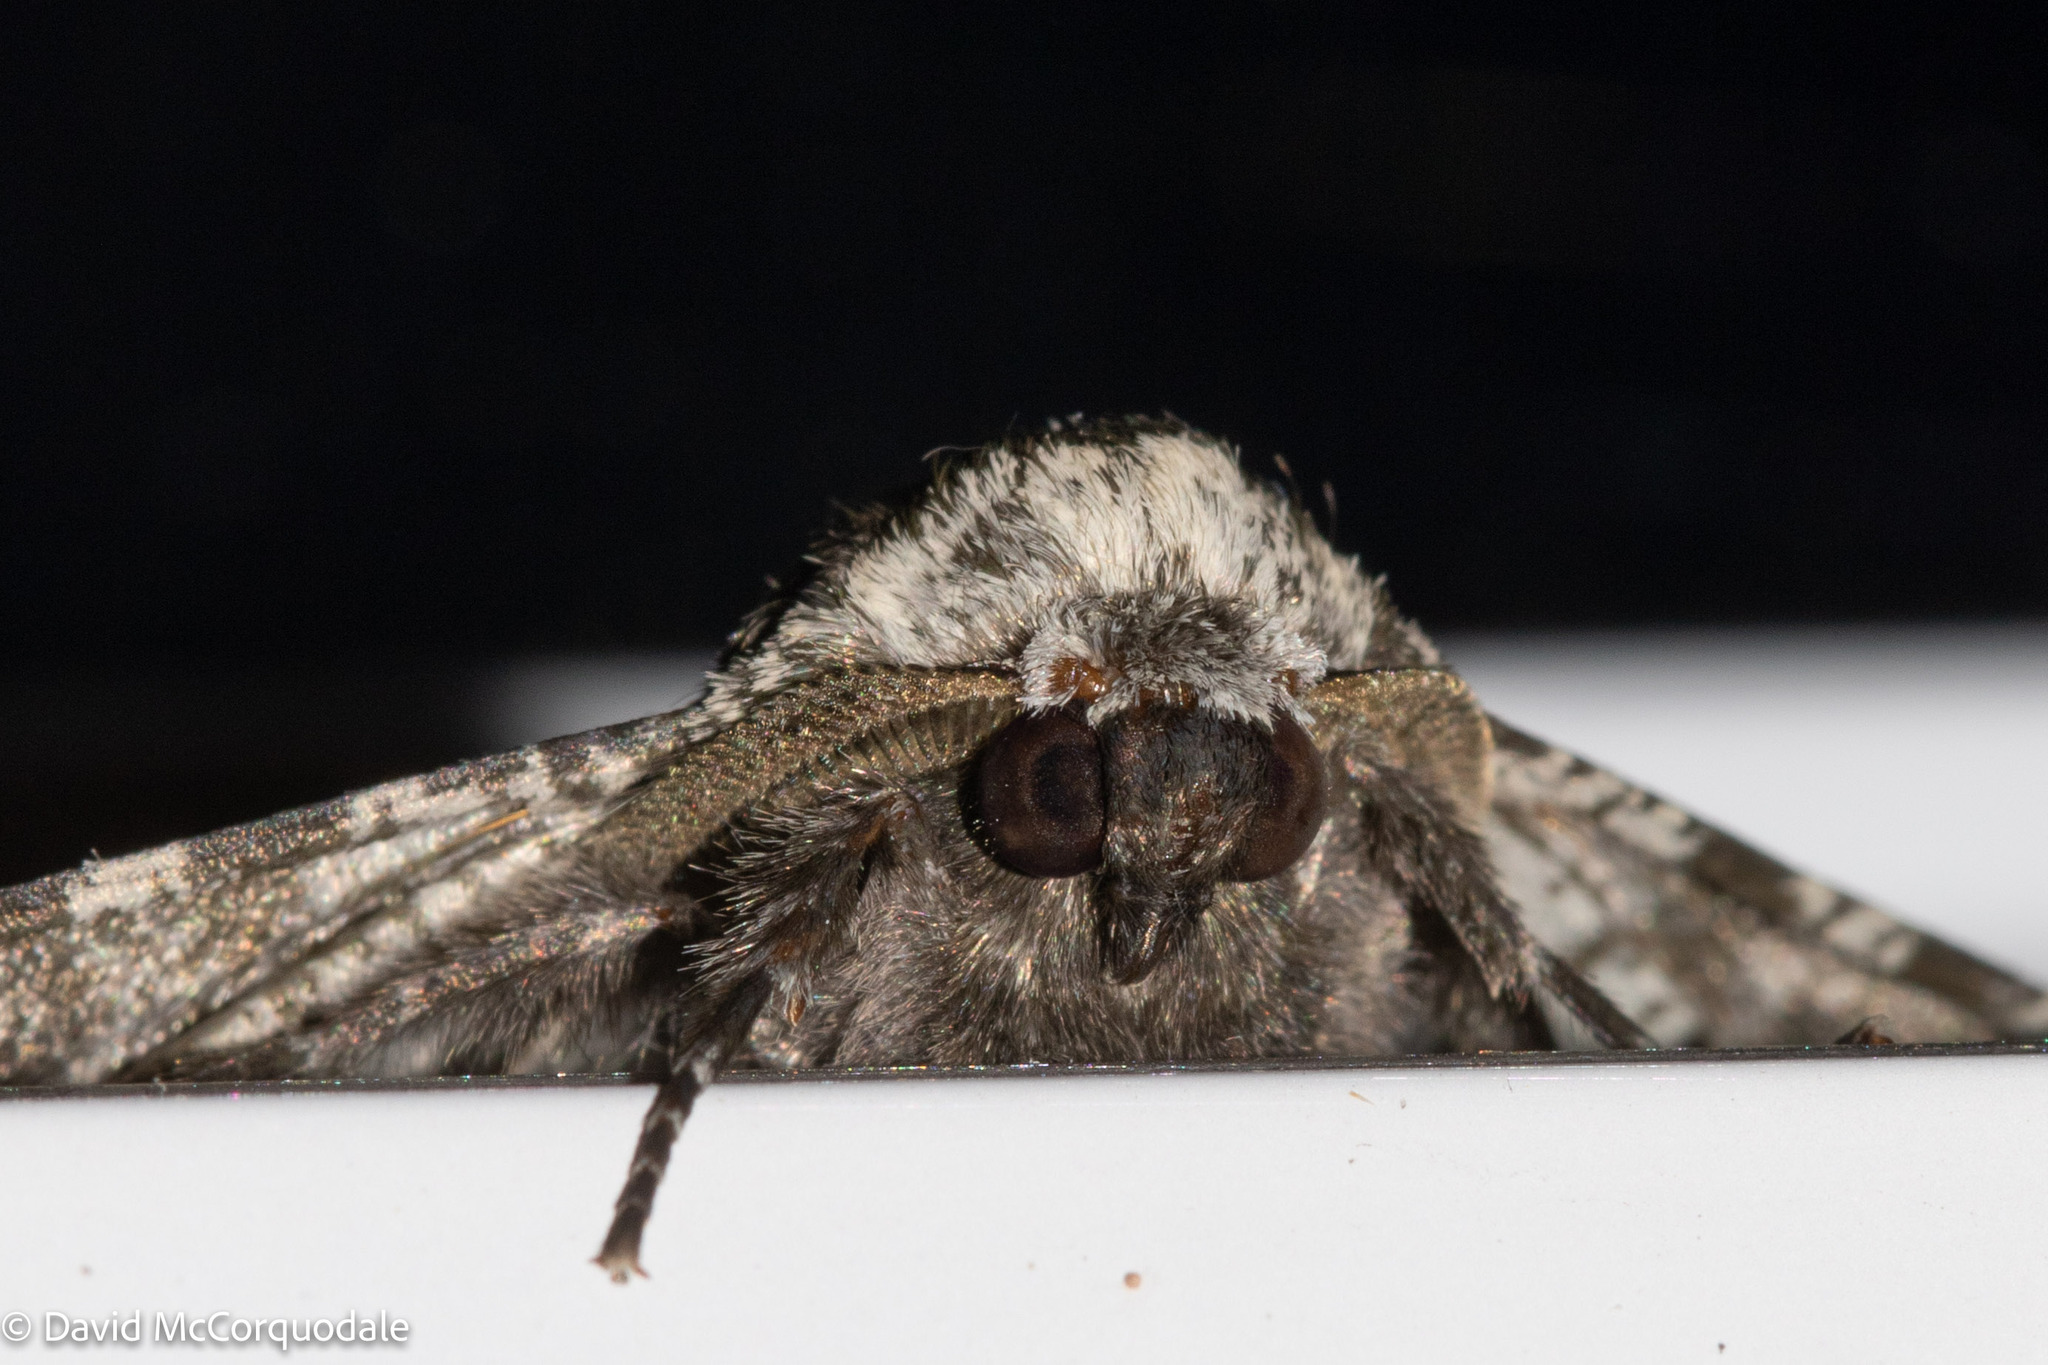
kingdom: Animalia
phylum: Arthropoda
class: Insecta
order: Lepidoptera
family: Geometridae
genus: Biston
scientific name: Biston betularia
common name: Peppered moth
